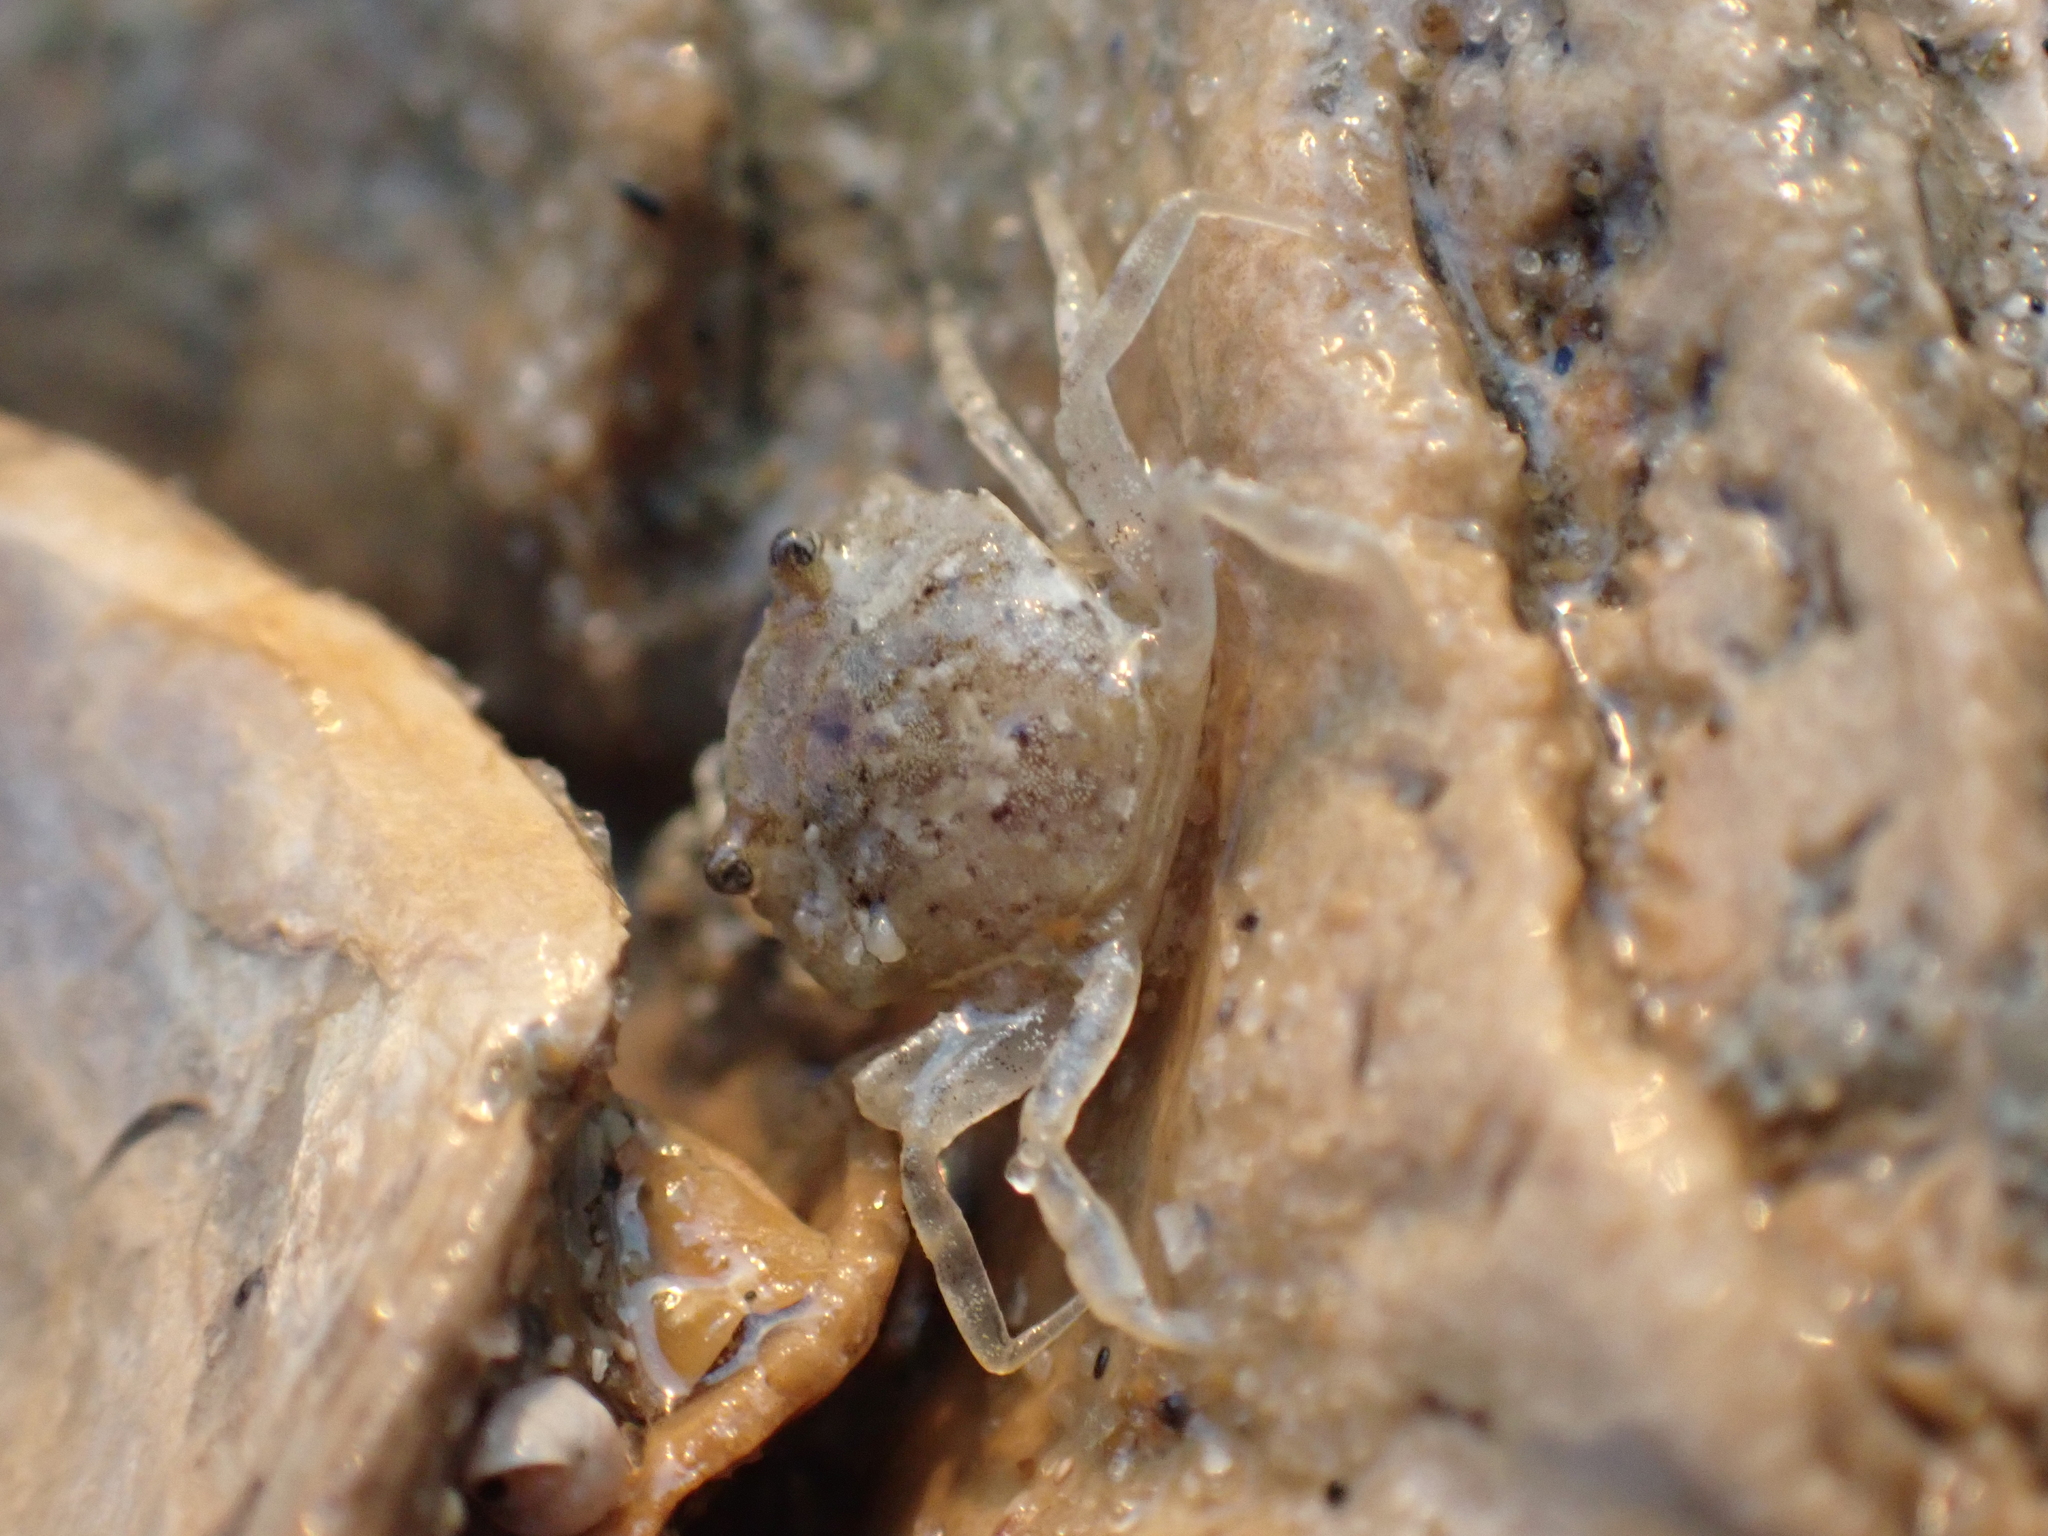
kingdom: Animalia
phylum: Arthropoda
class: Malacostraca
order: Decapoda
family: Carcinidae
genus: Carcinus
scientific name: Carcinus maenas
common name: European green crab
